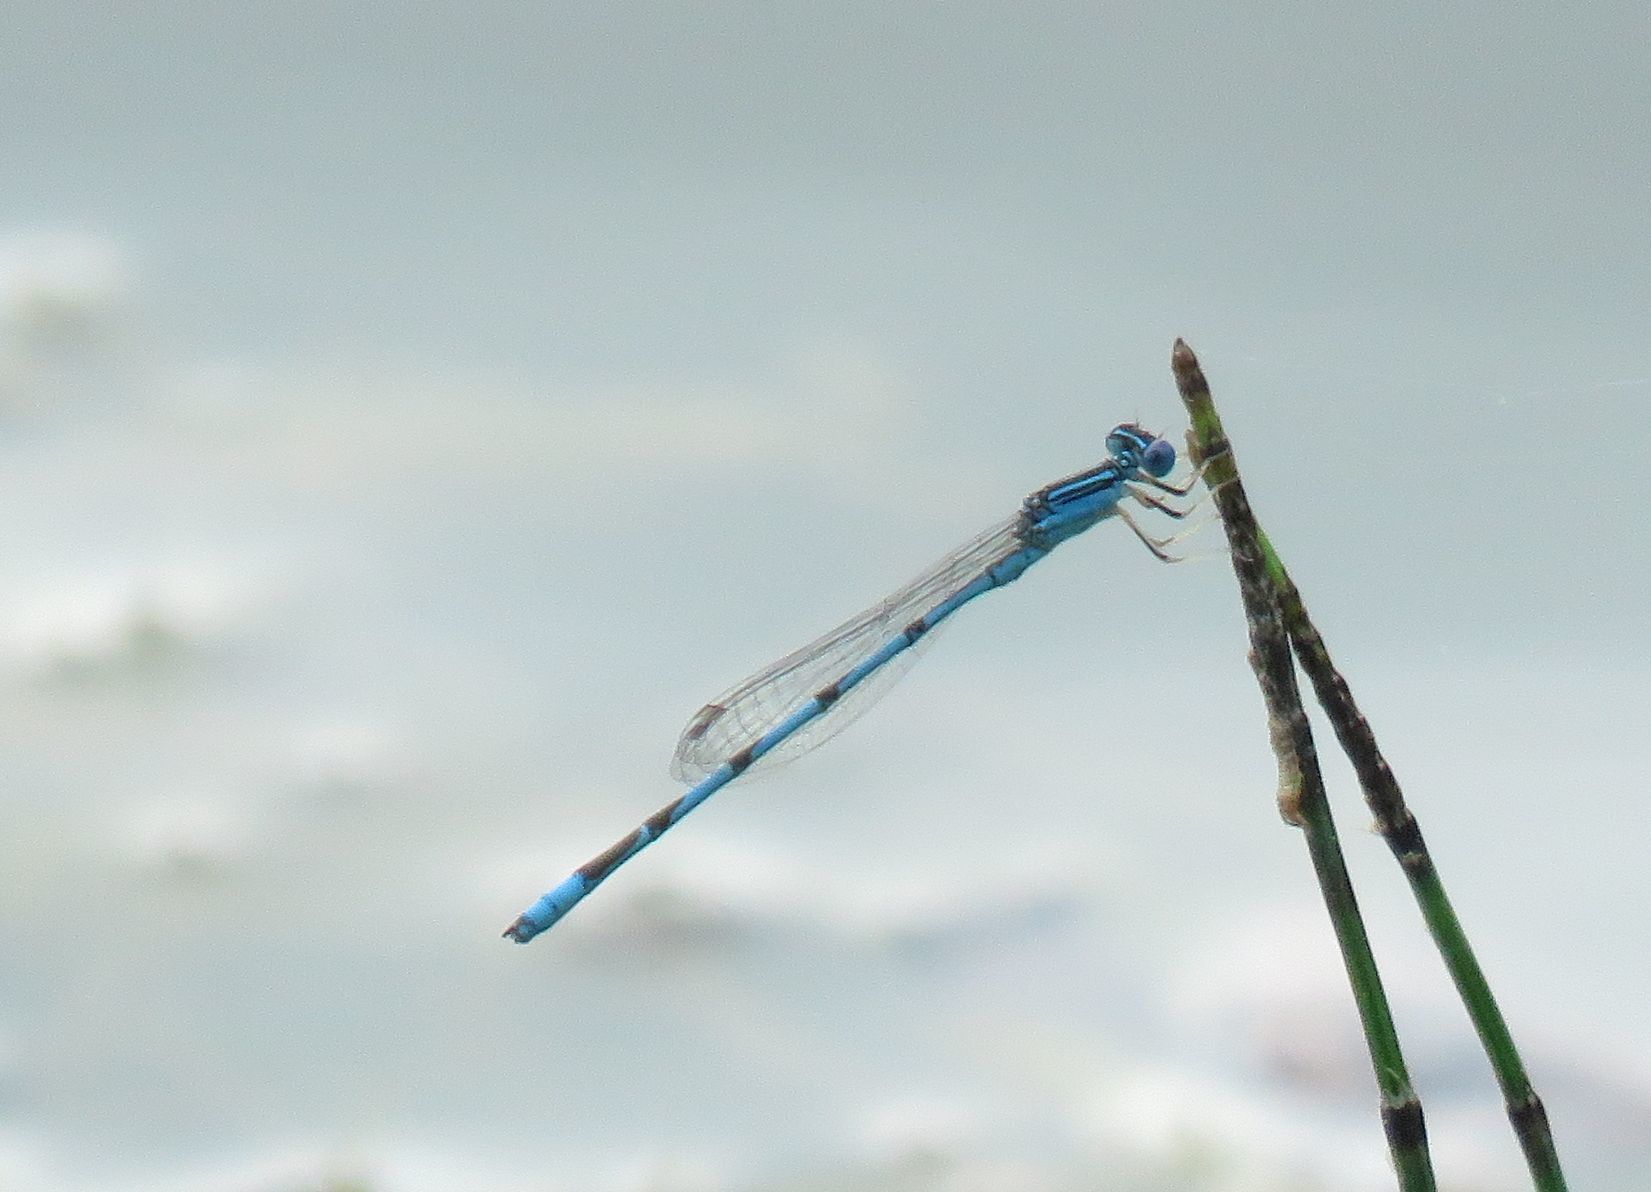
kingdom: Animalia
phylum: Arthropoda
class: Insecta
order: Odonata
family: Coenagrionidae
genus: Enallagma
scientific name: Enallagma basidens
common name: Double-striped bluet
